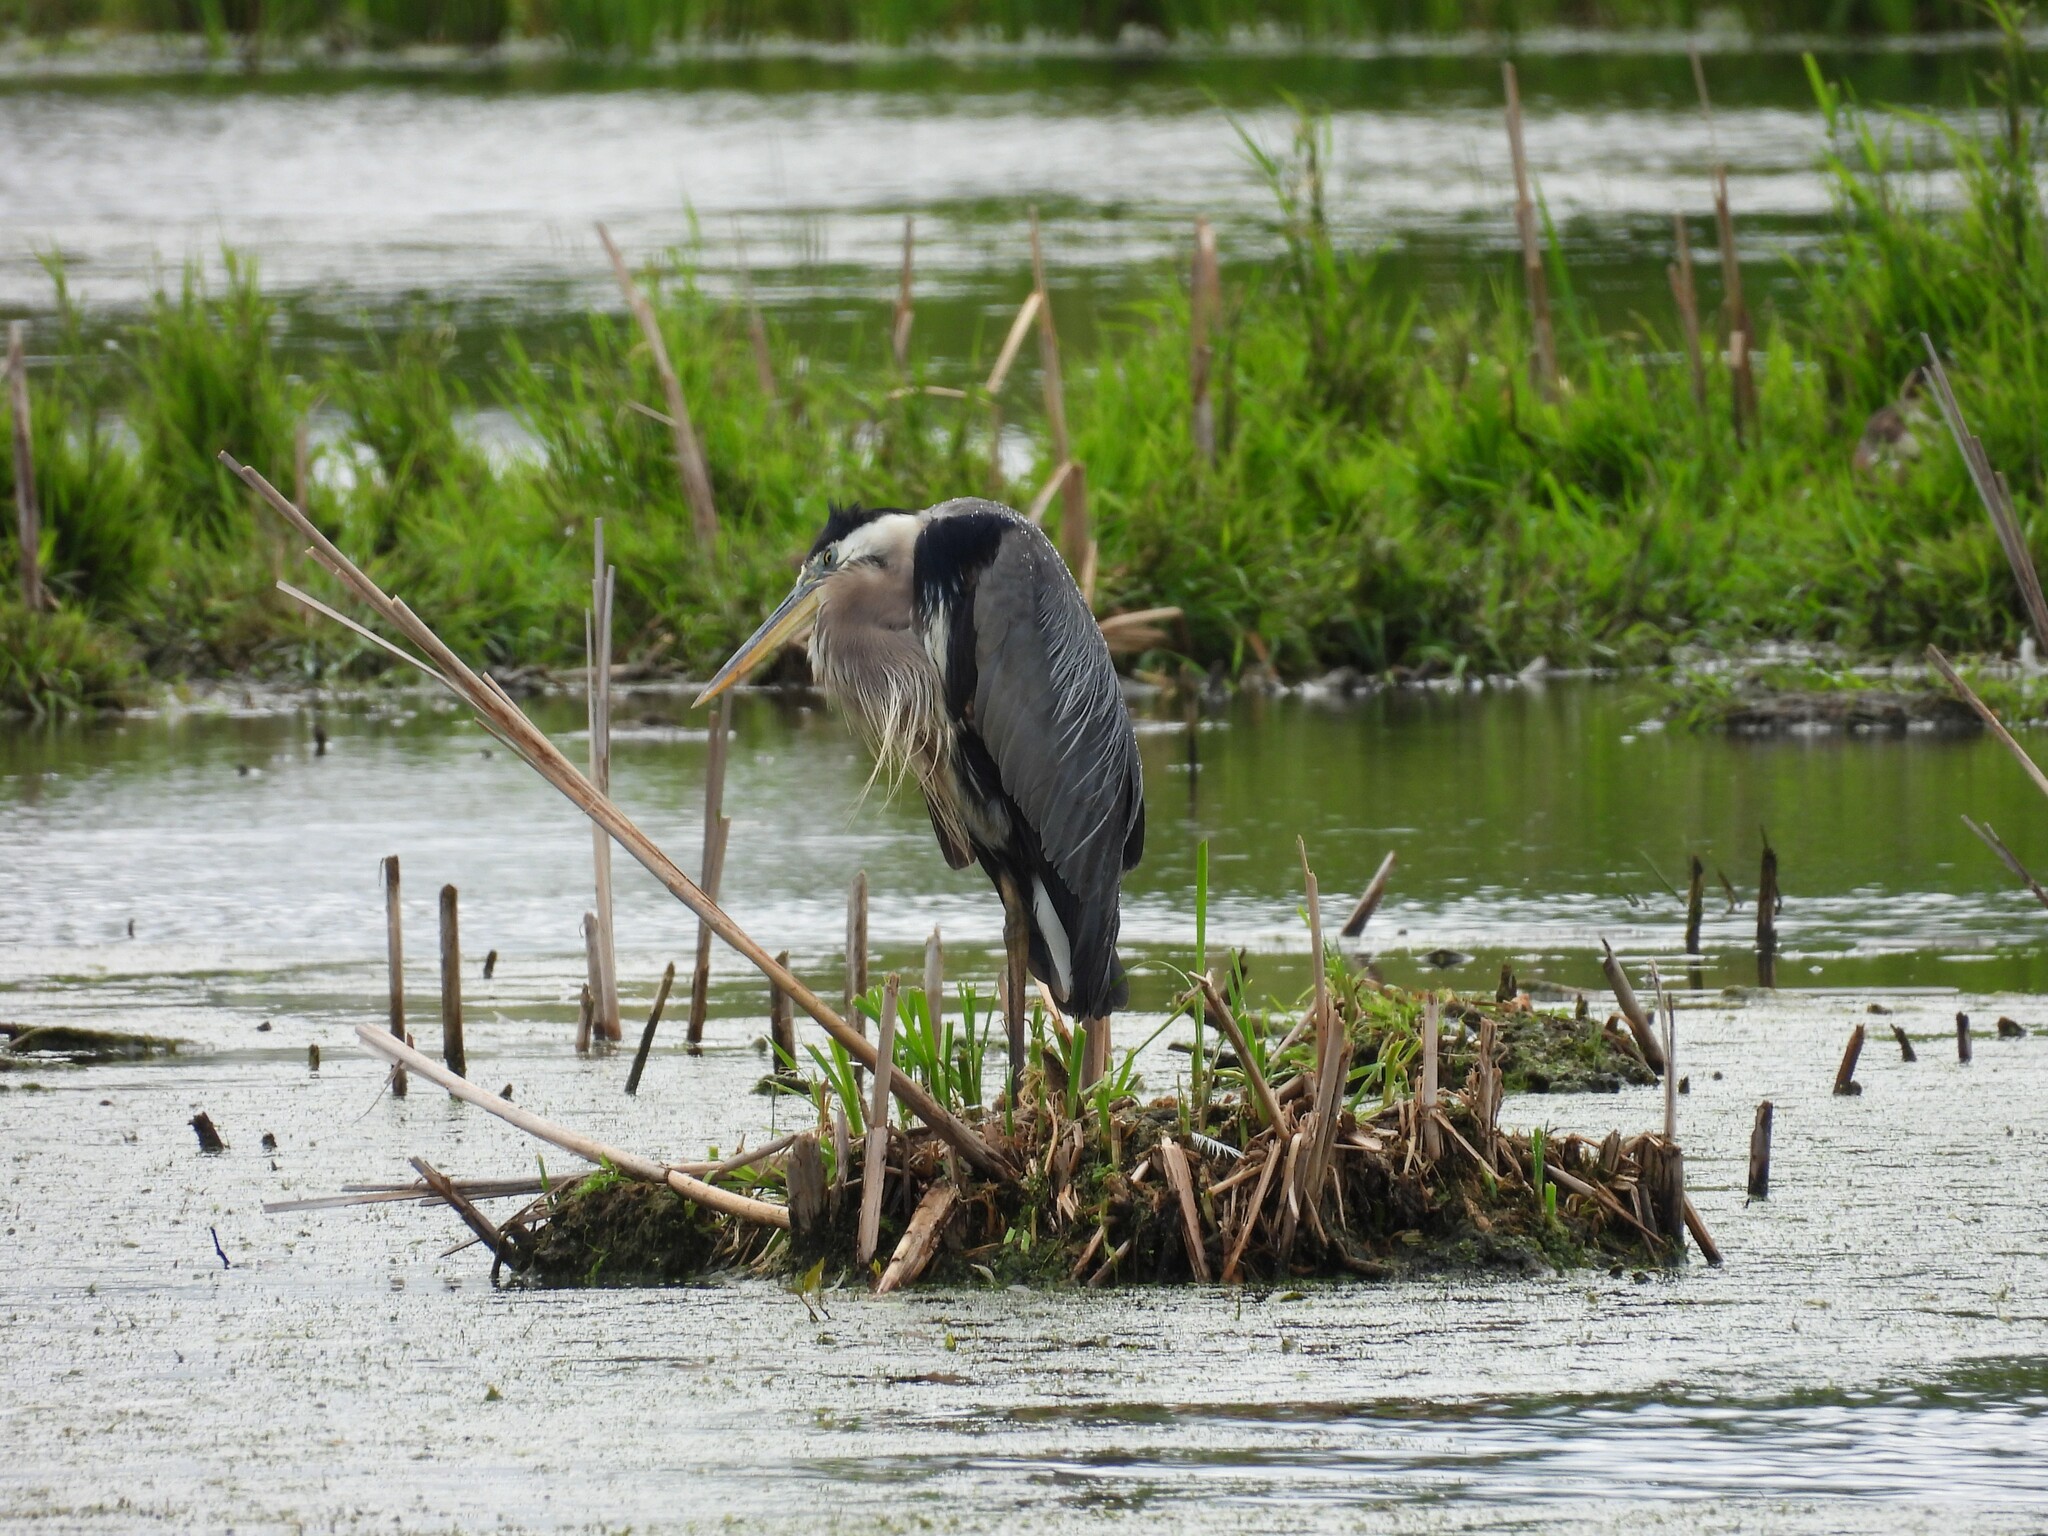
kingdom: Animalia
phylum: Chordata
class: Aves
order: Pelecaniformes
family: Ardeidae
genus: Ardea
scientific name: Ardea herodias
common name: Great blue heron
